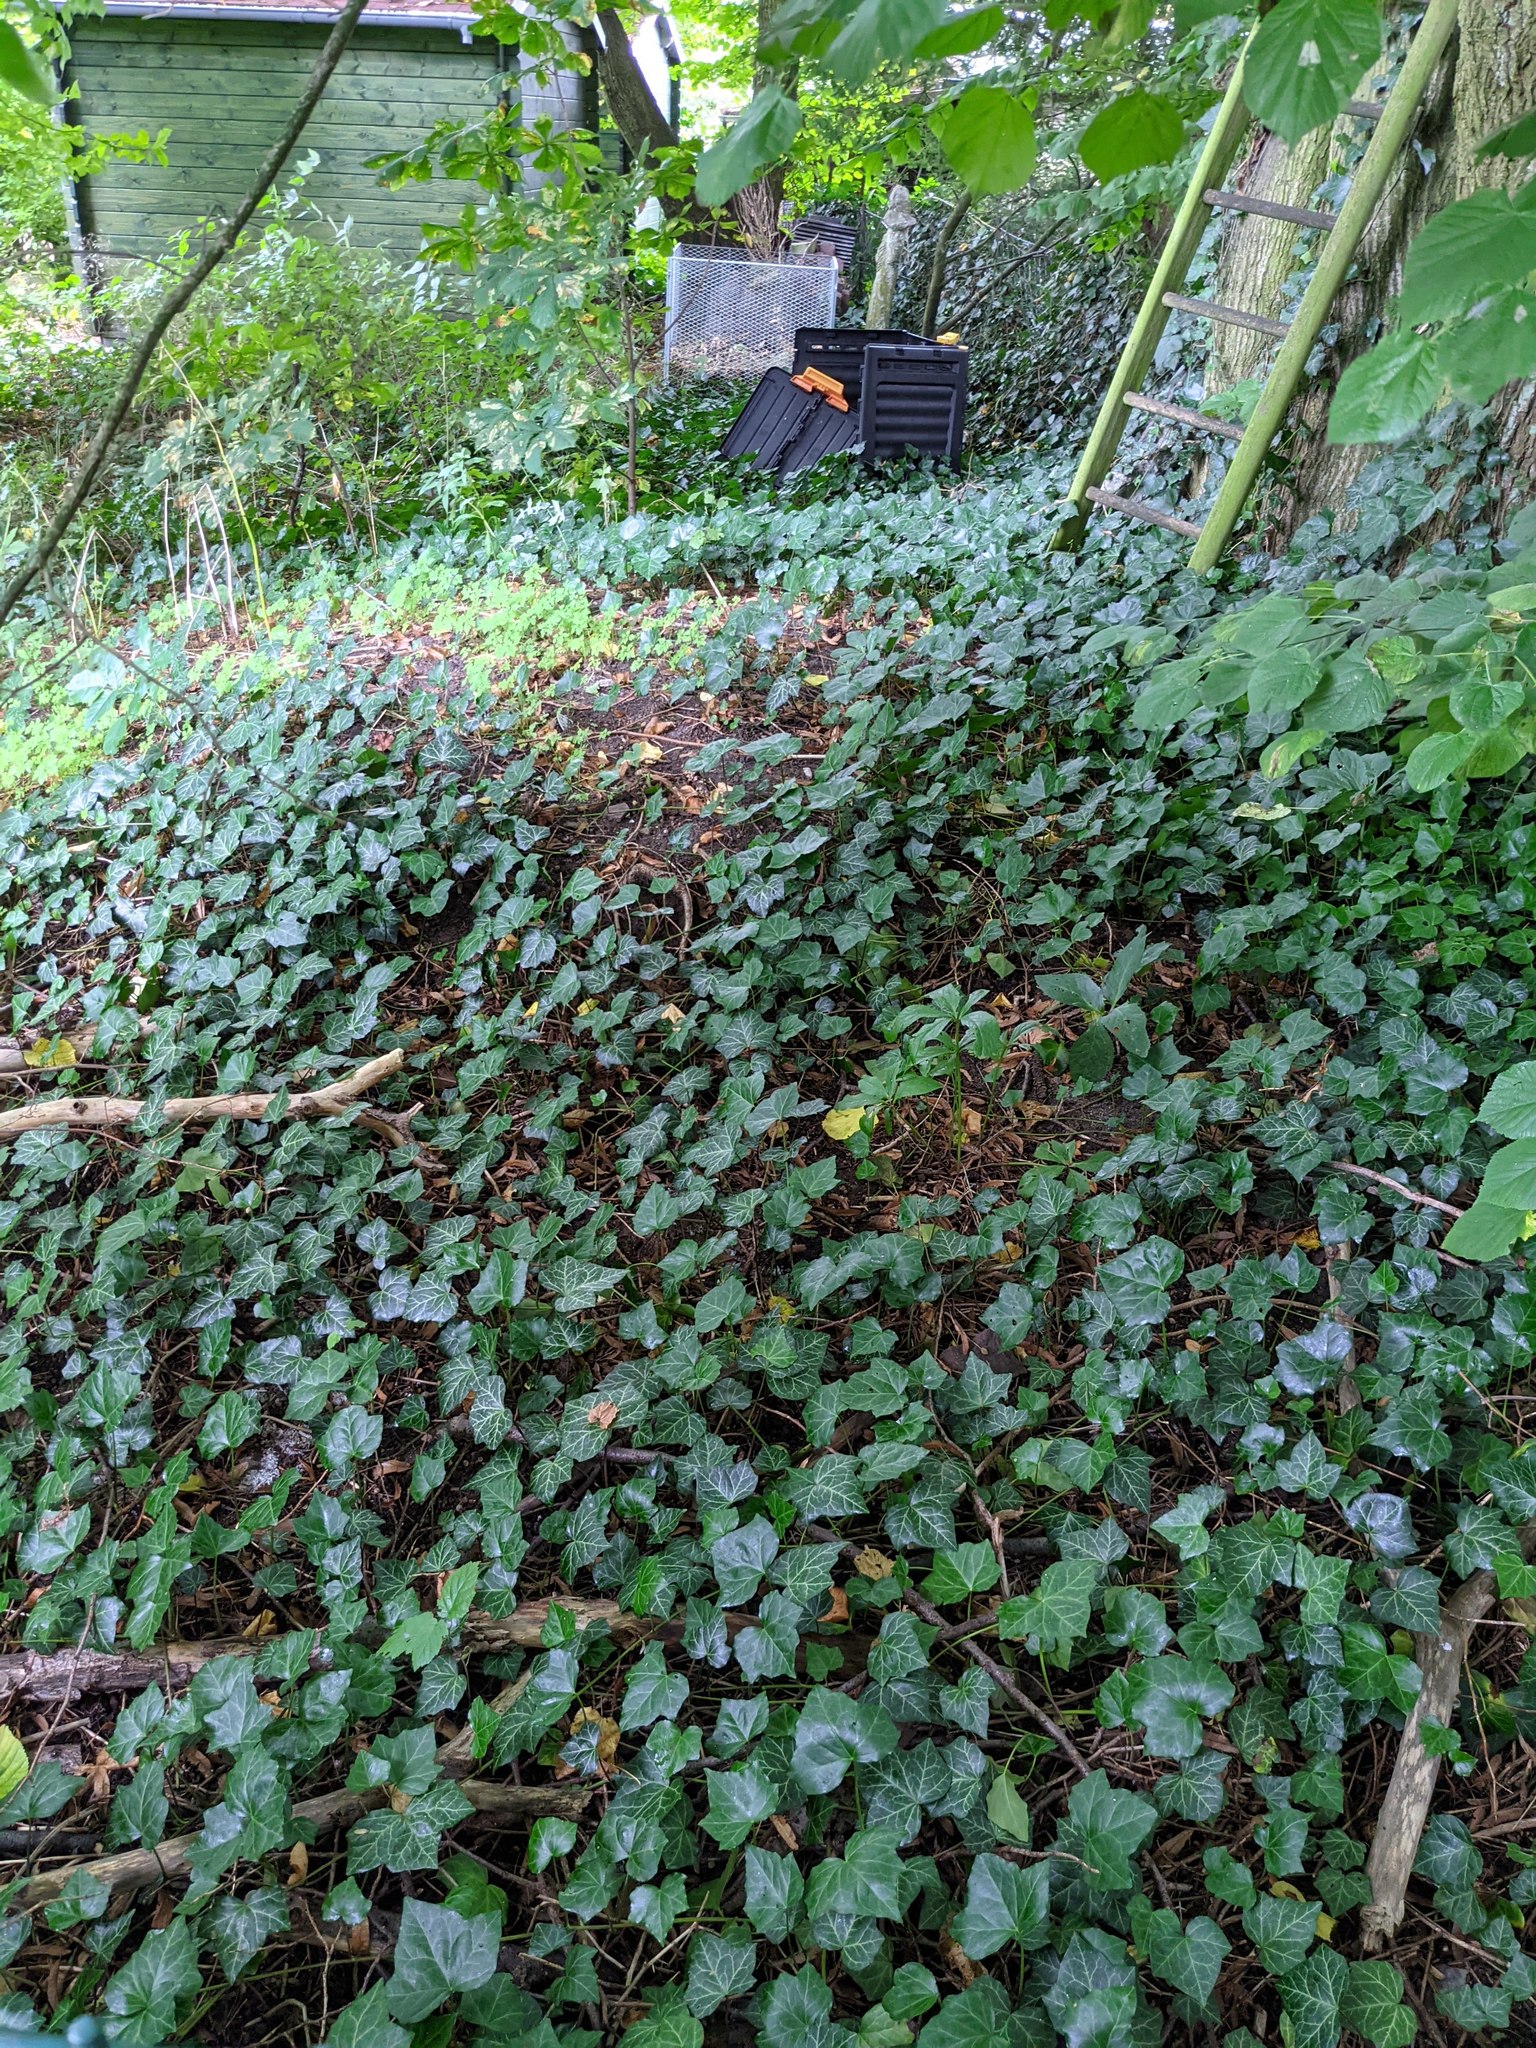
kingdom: Plantae
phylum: Tracheophyta
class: Magnoliopsida
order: Apiales
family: Araliaceae
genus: Hedera
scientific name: Hedera helix
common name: Ivy
